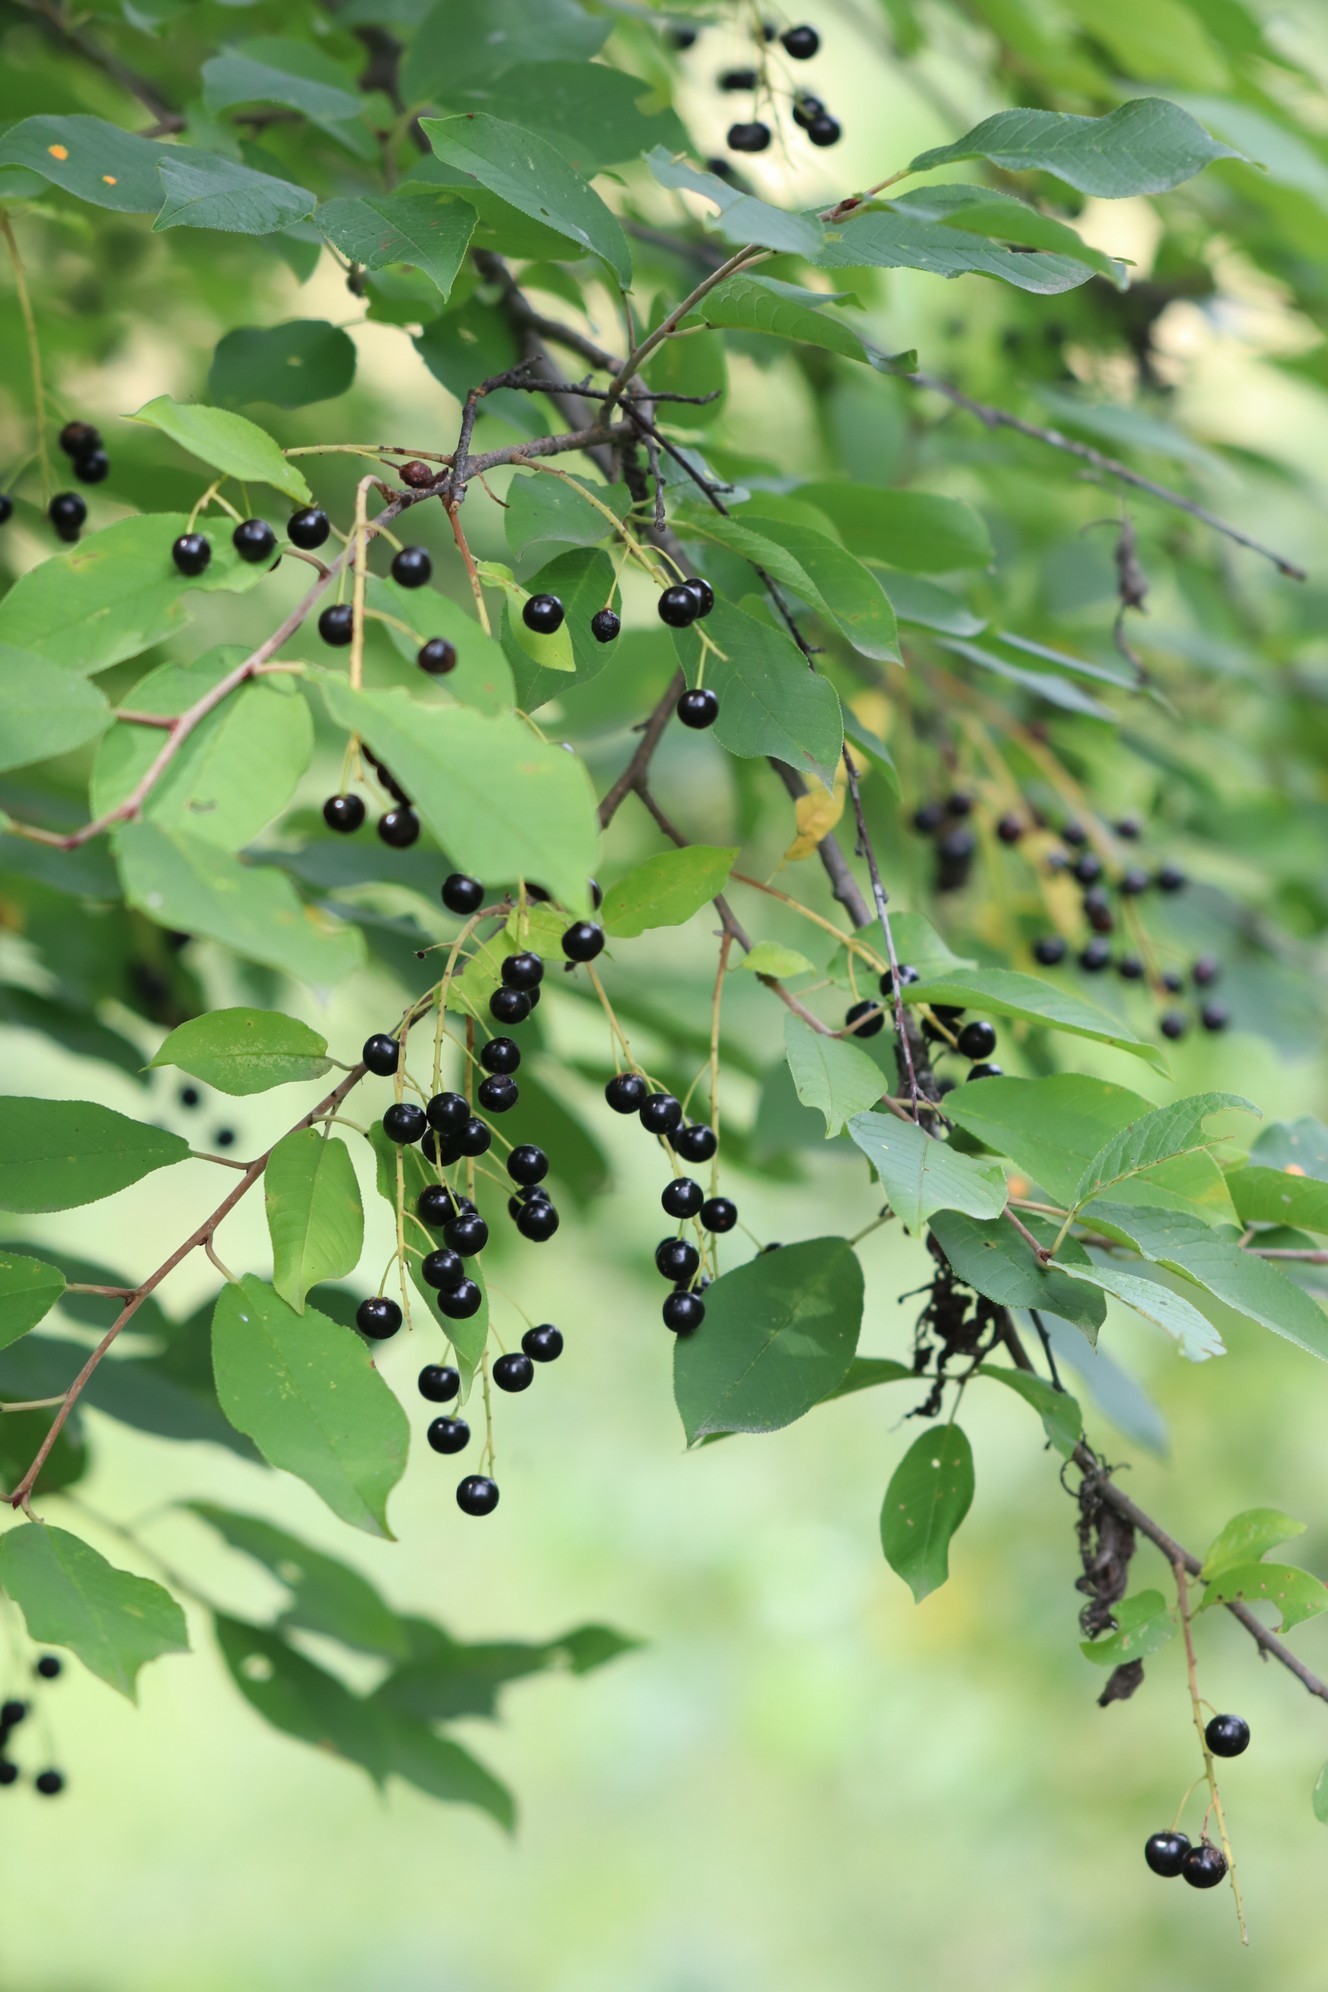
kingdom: Plantae
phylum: Tracheophyta
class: Magnoliopsida
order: Rosales
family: Rosaceae
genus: Prunus
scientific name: Prunus padus
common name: Bird cherry
